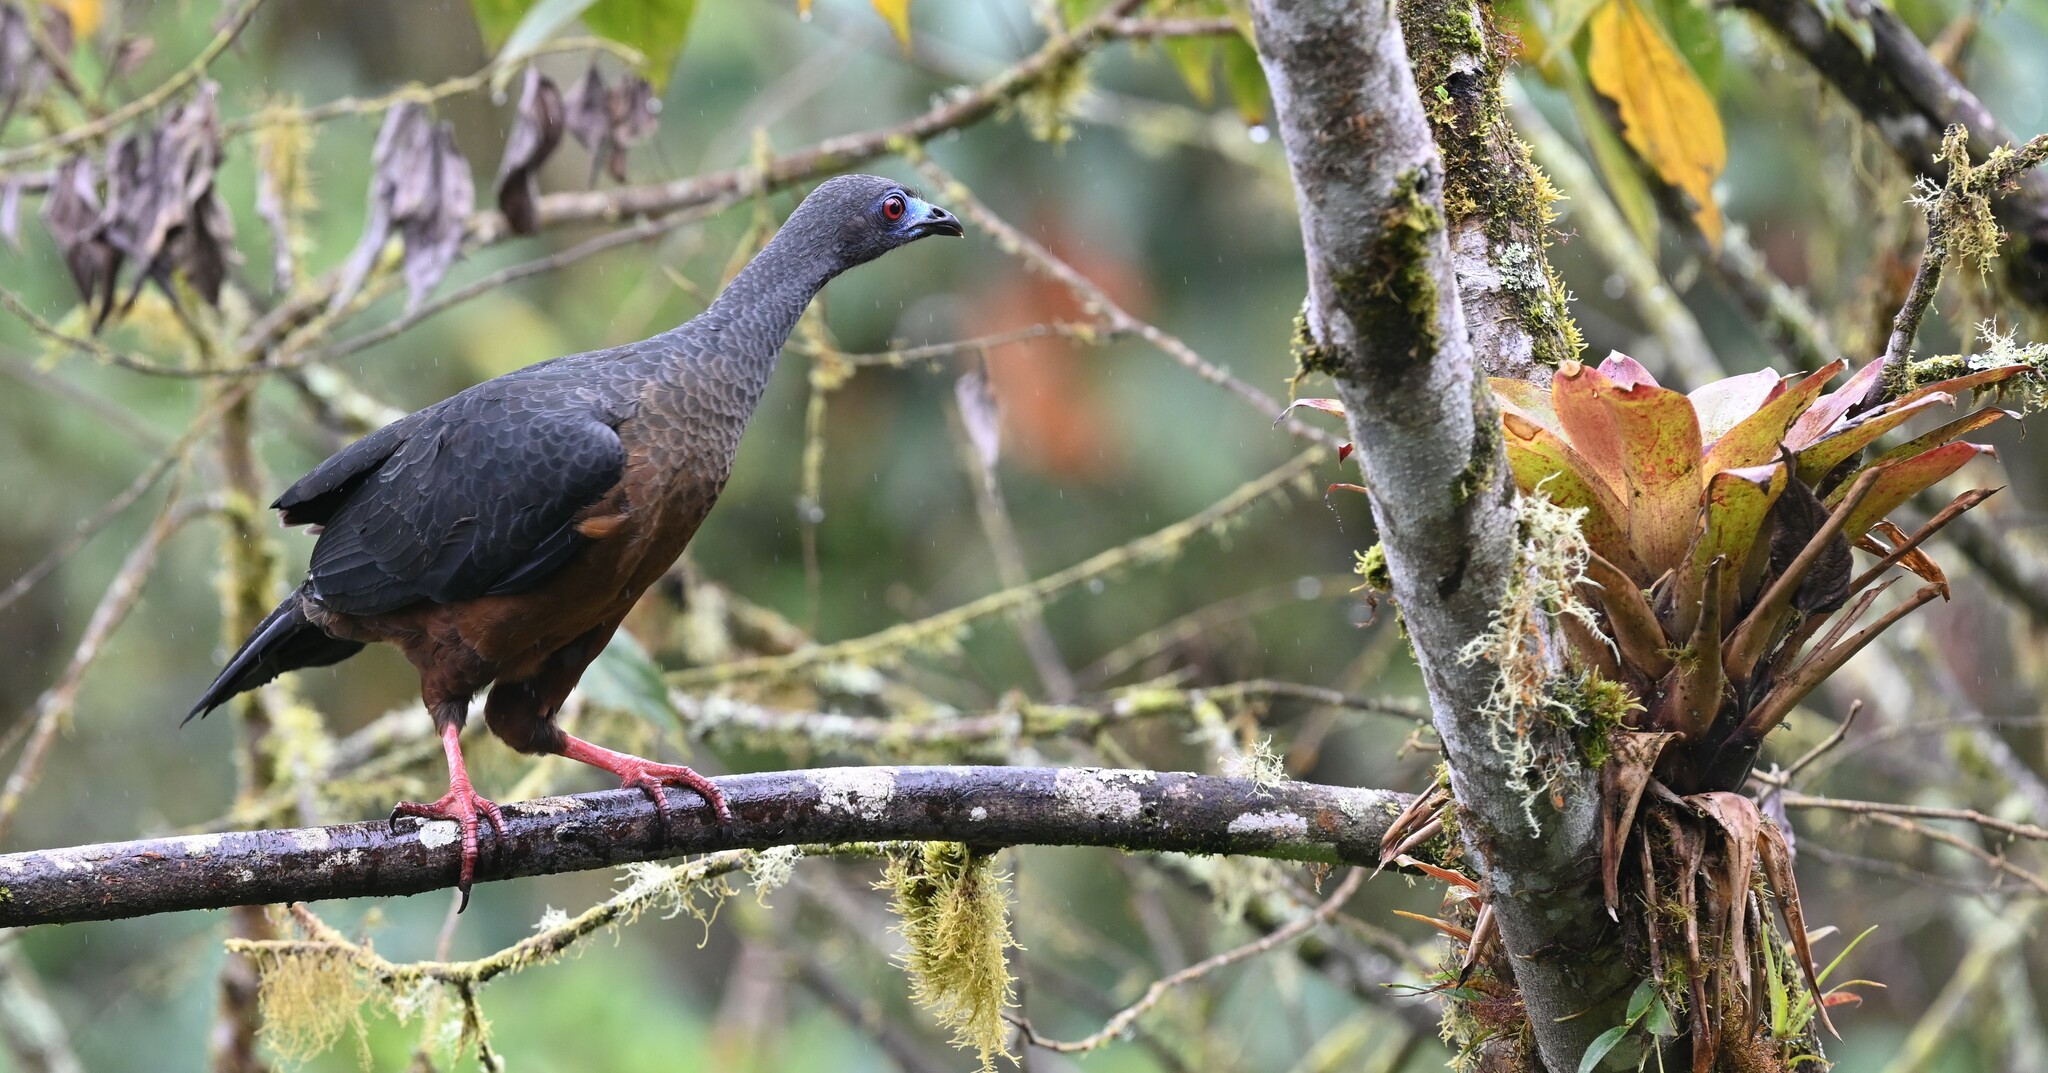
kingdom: Animalia
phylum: Chordata
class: Aves
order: Galliformes
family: Cracidae
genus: Chamaepetes
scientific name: Chamaepetes goudotii
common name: Sickle-winged guan
